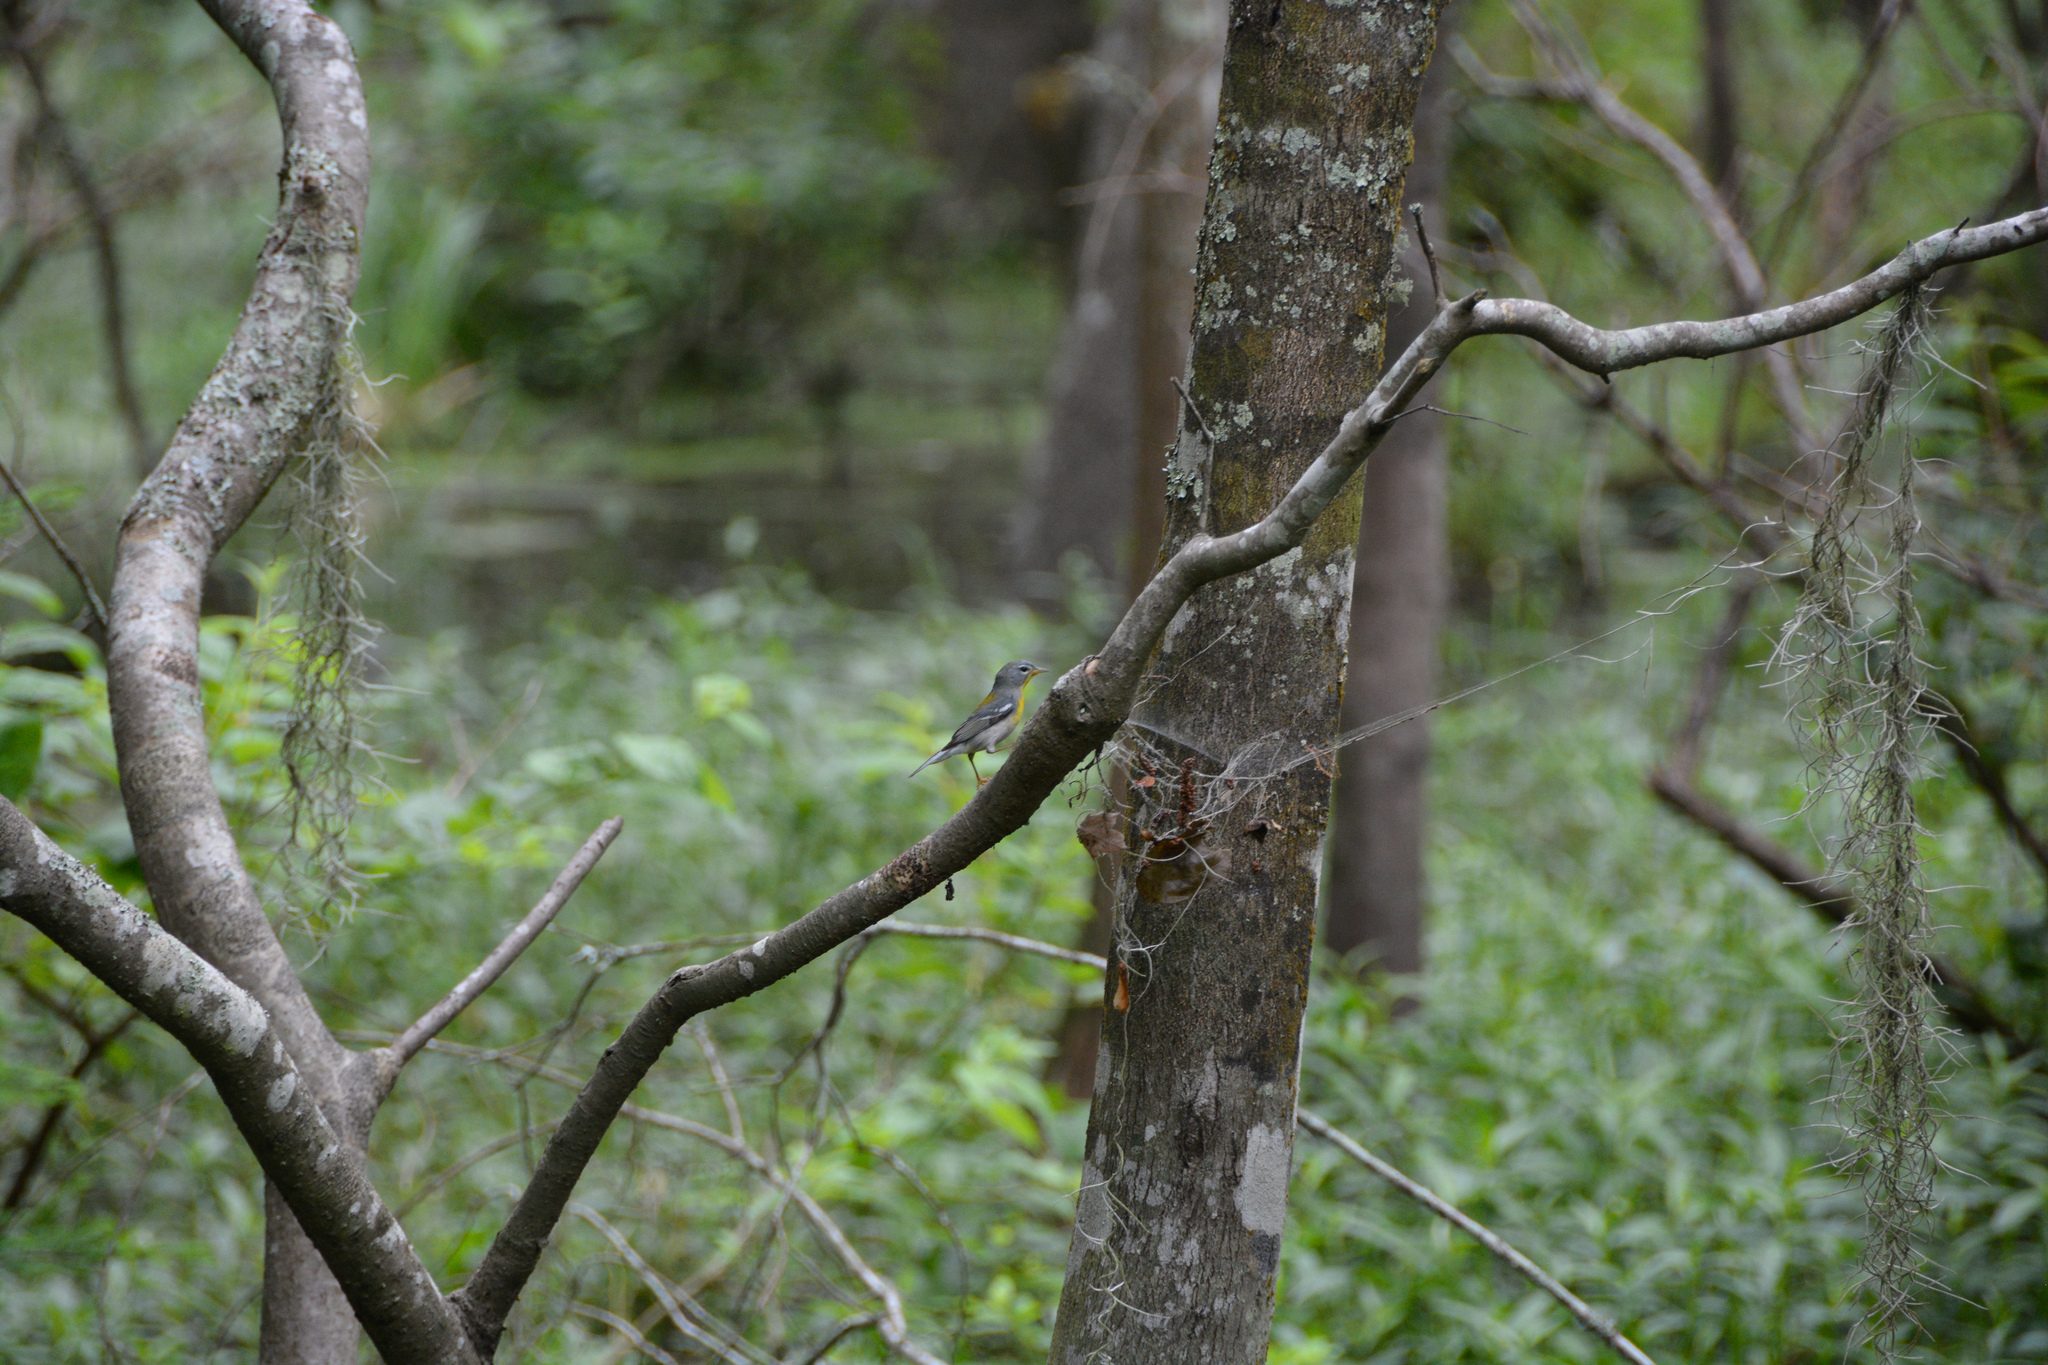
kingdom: Animalia
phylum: Chordata
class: Aves
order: Passeriformes
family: Parulidae
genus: Setophaga
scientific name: Setophaga americana
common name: Northern parula
